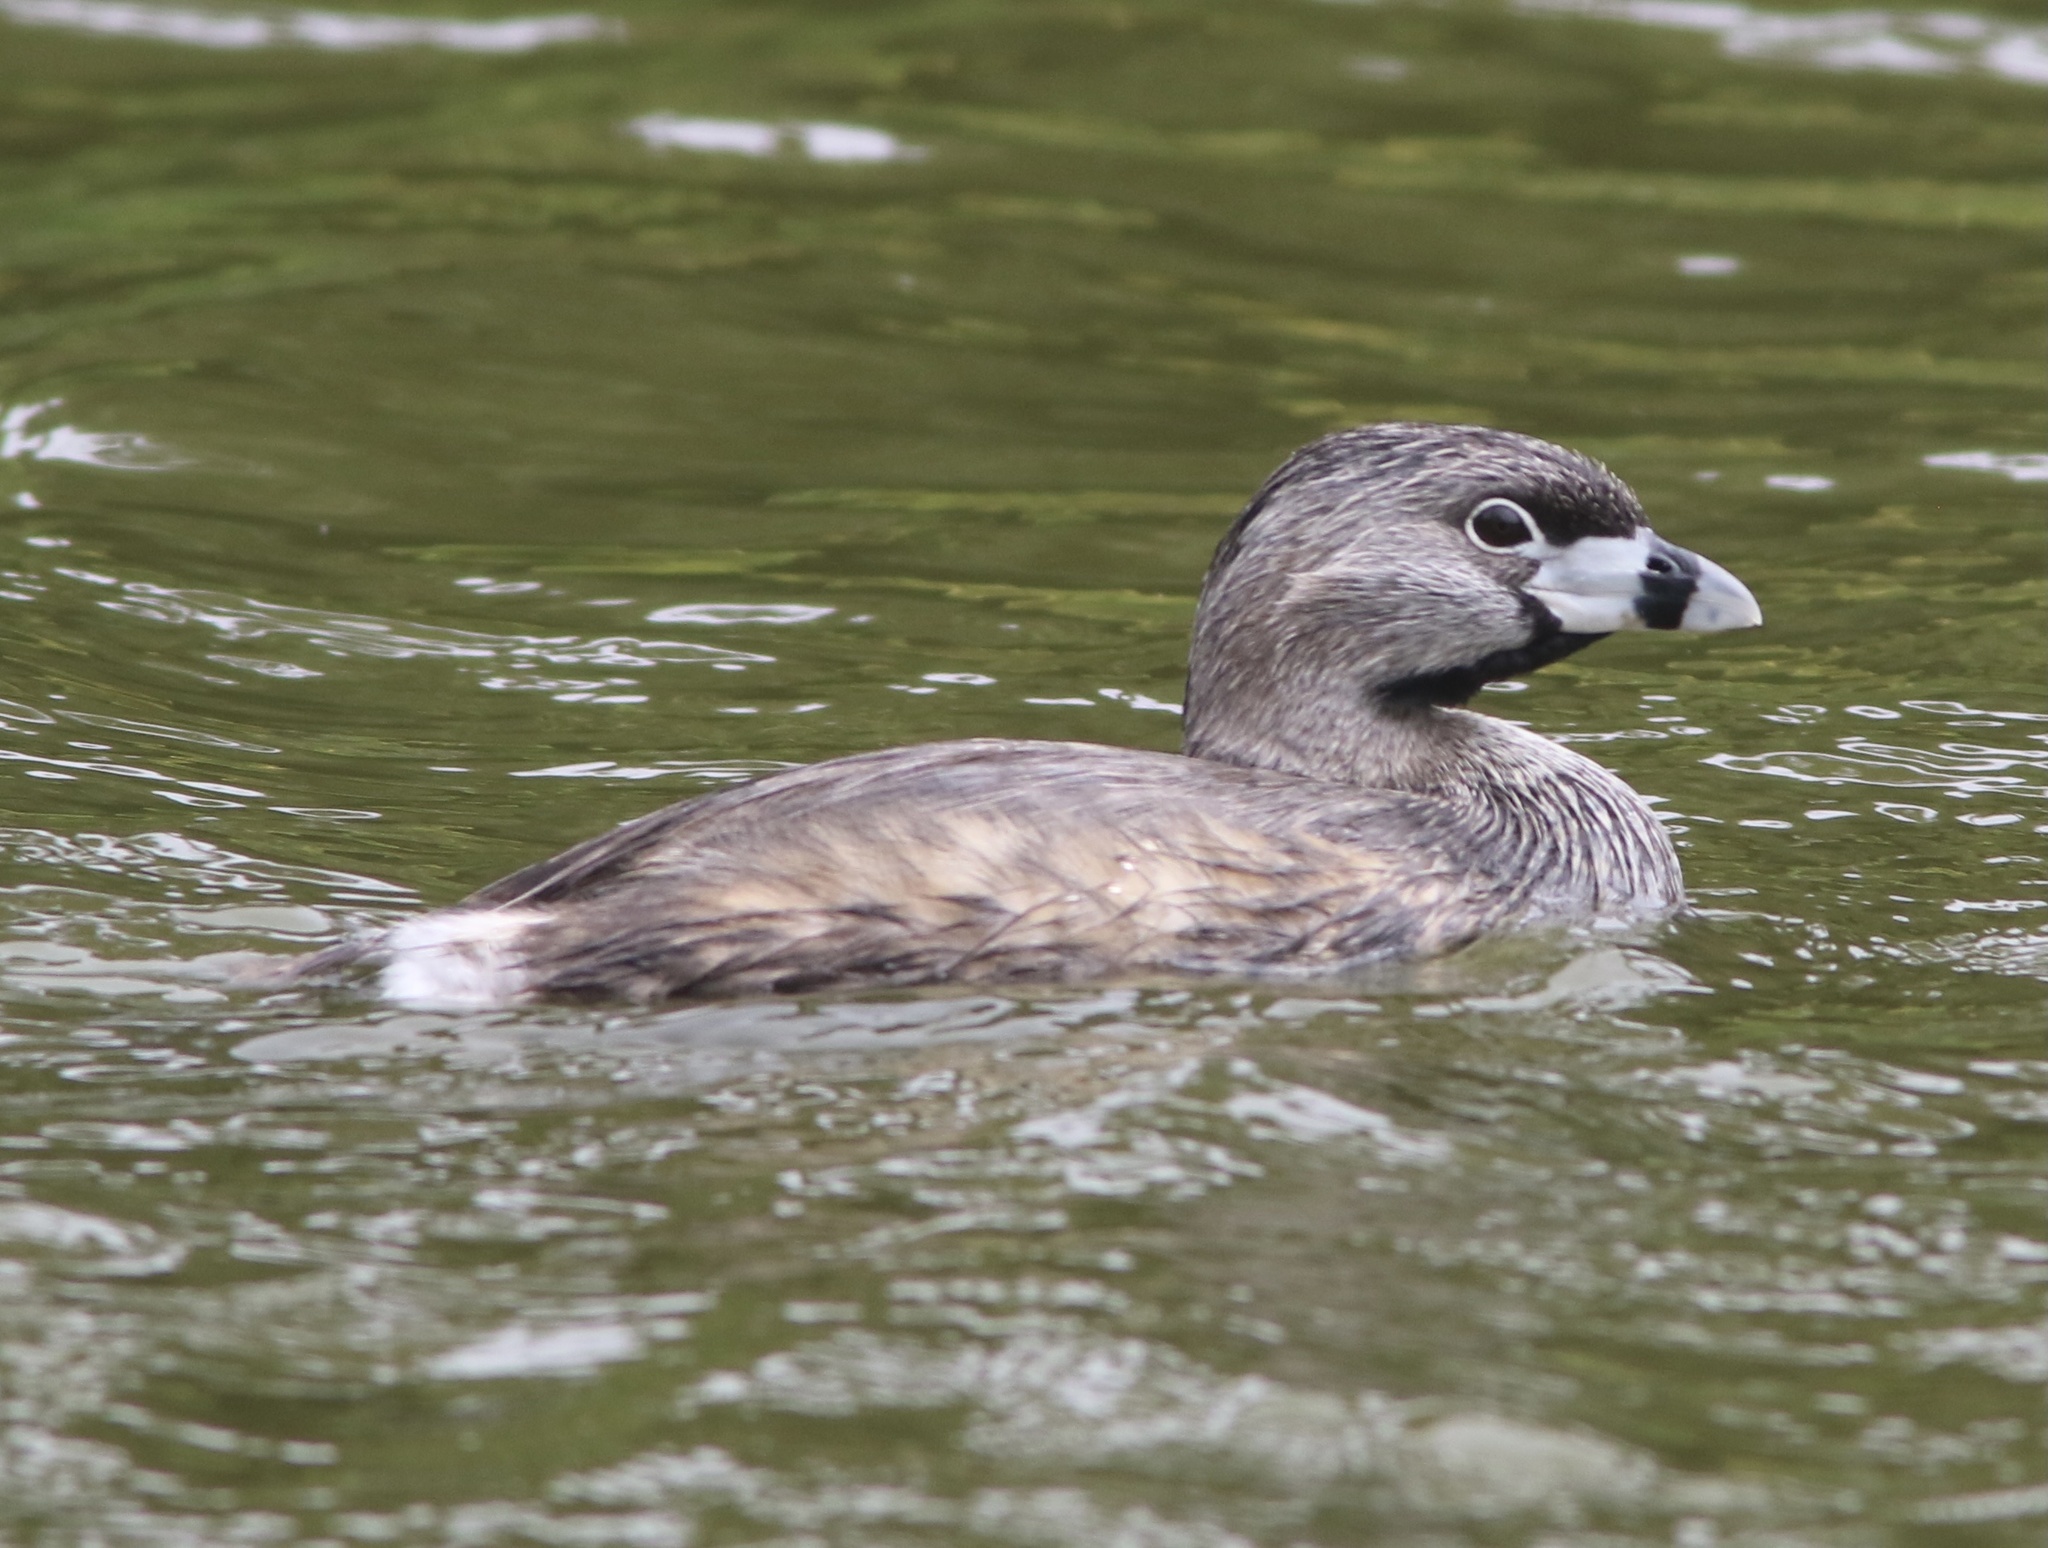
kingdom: Animalia
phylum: Chordata
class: Aves
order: Podicipediformes
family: Podicipedidae
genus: Podilymbus
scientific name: Podilymbus podiceps
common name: Pied-billed grebe
